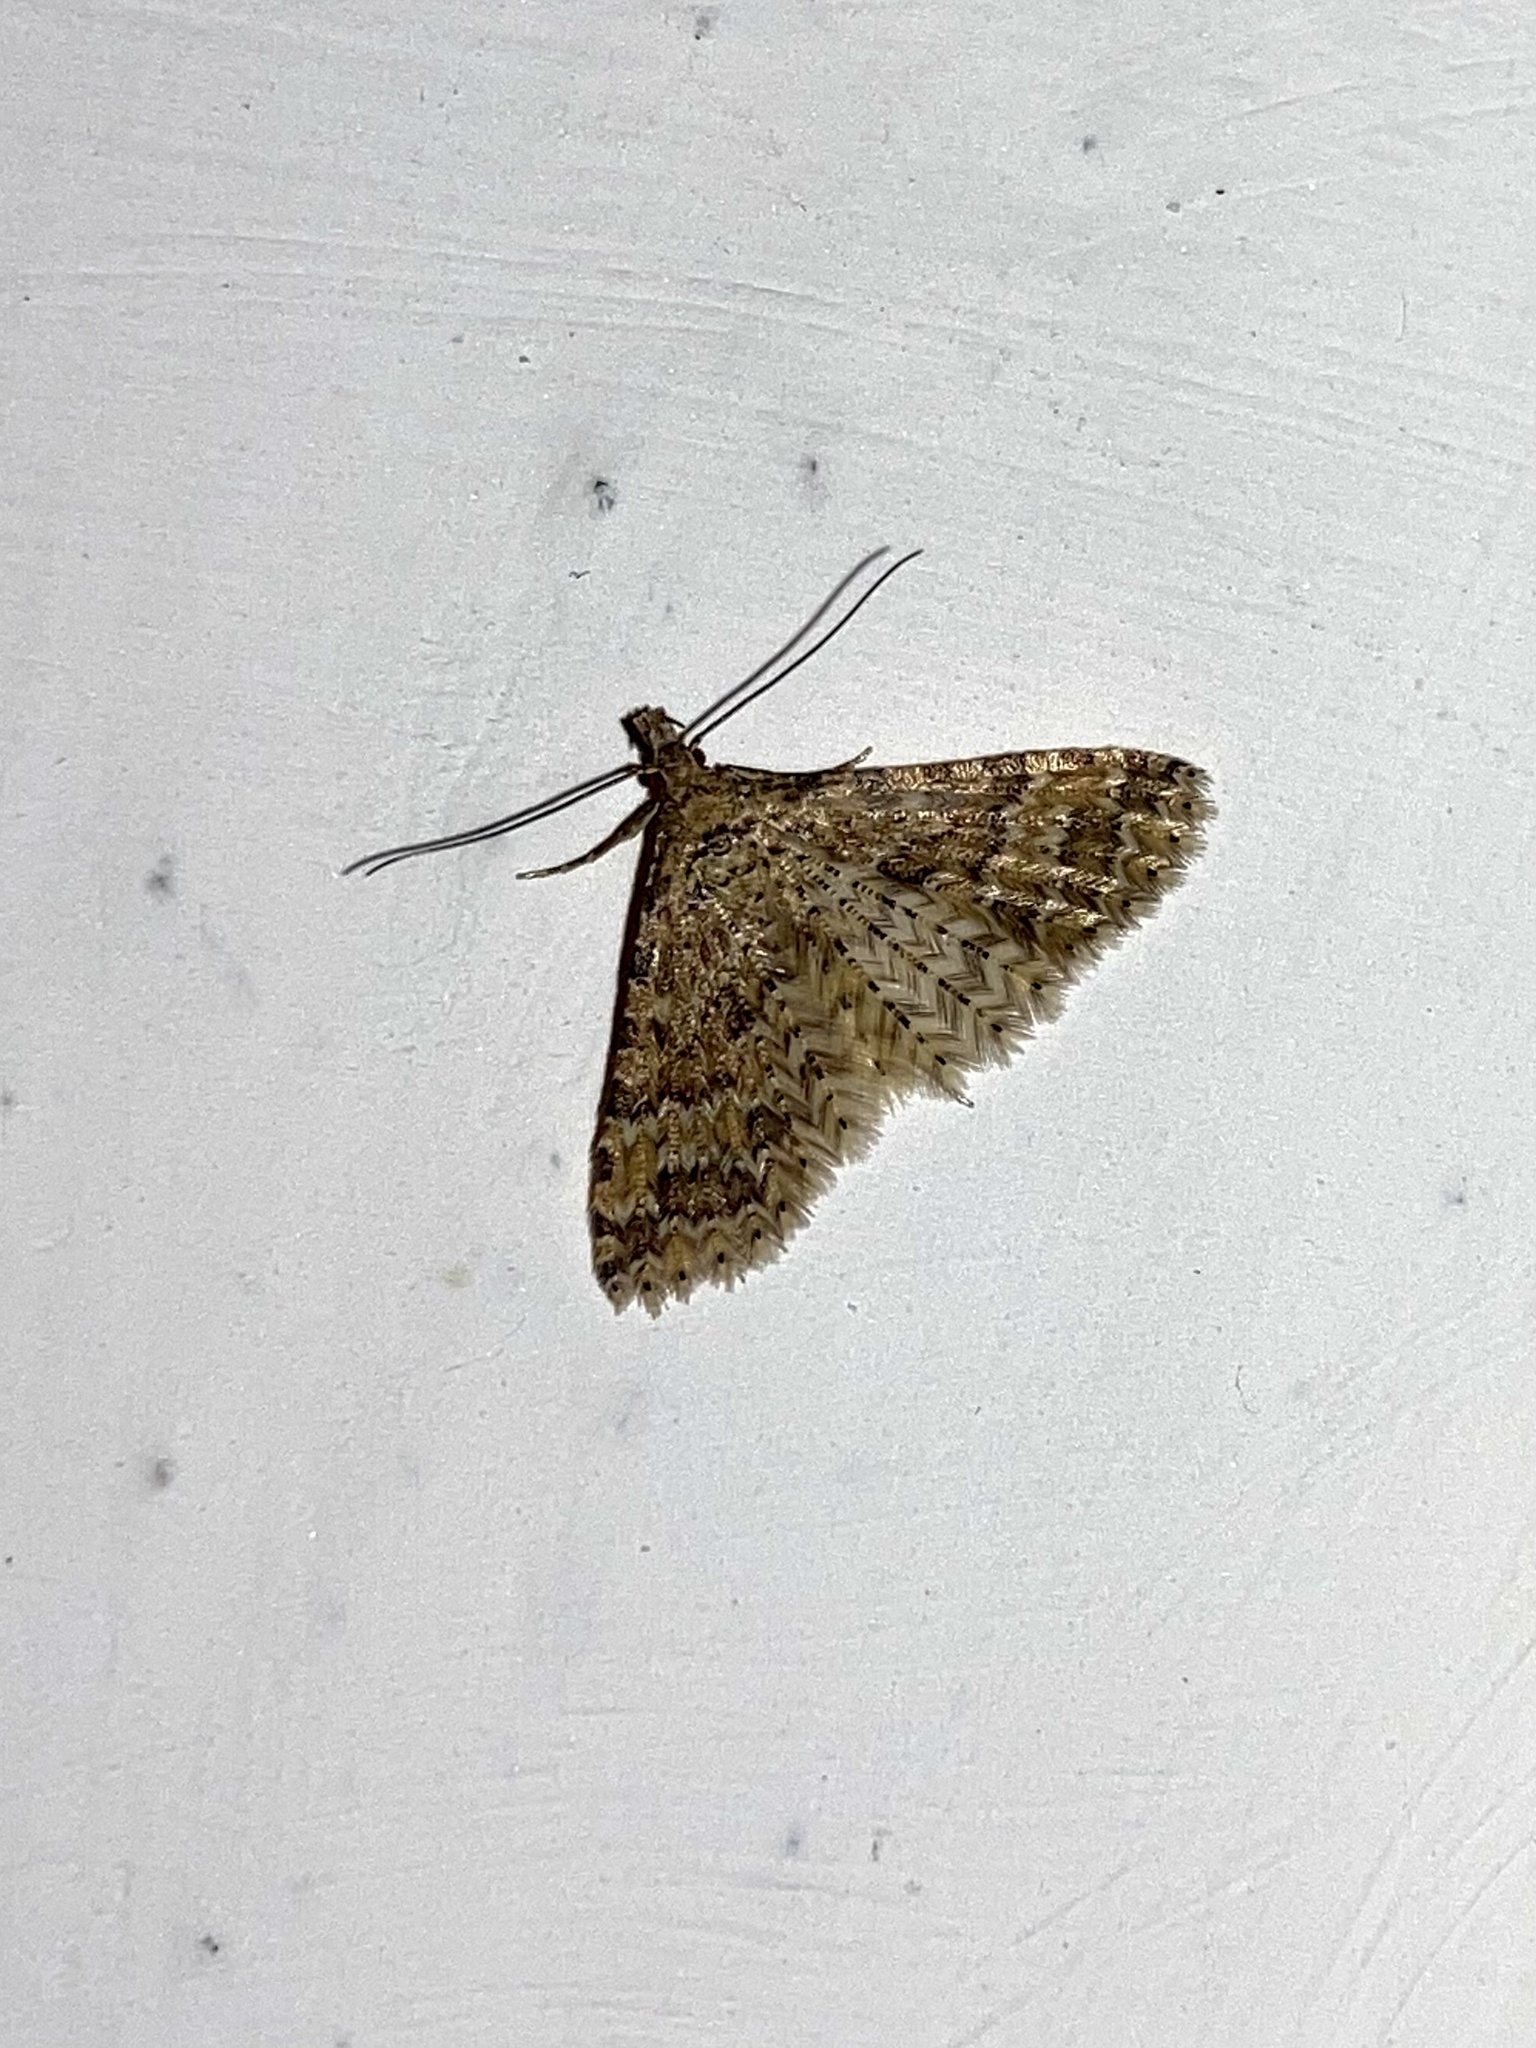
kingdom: Animalia
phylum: Arthropoda
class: Insecta
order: Lepidoptera
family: Alucitidae
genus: Alucita
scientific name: Alucita
